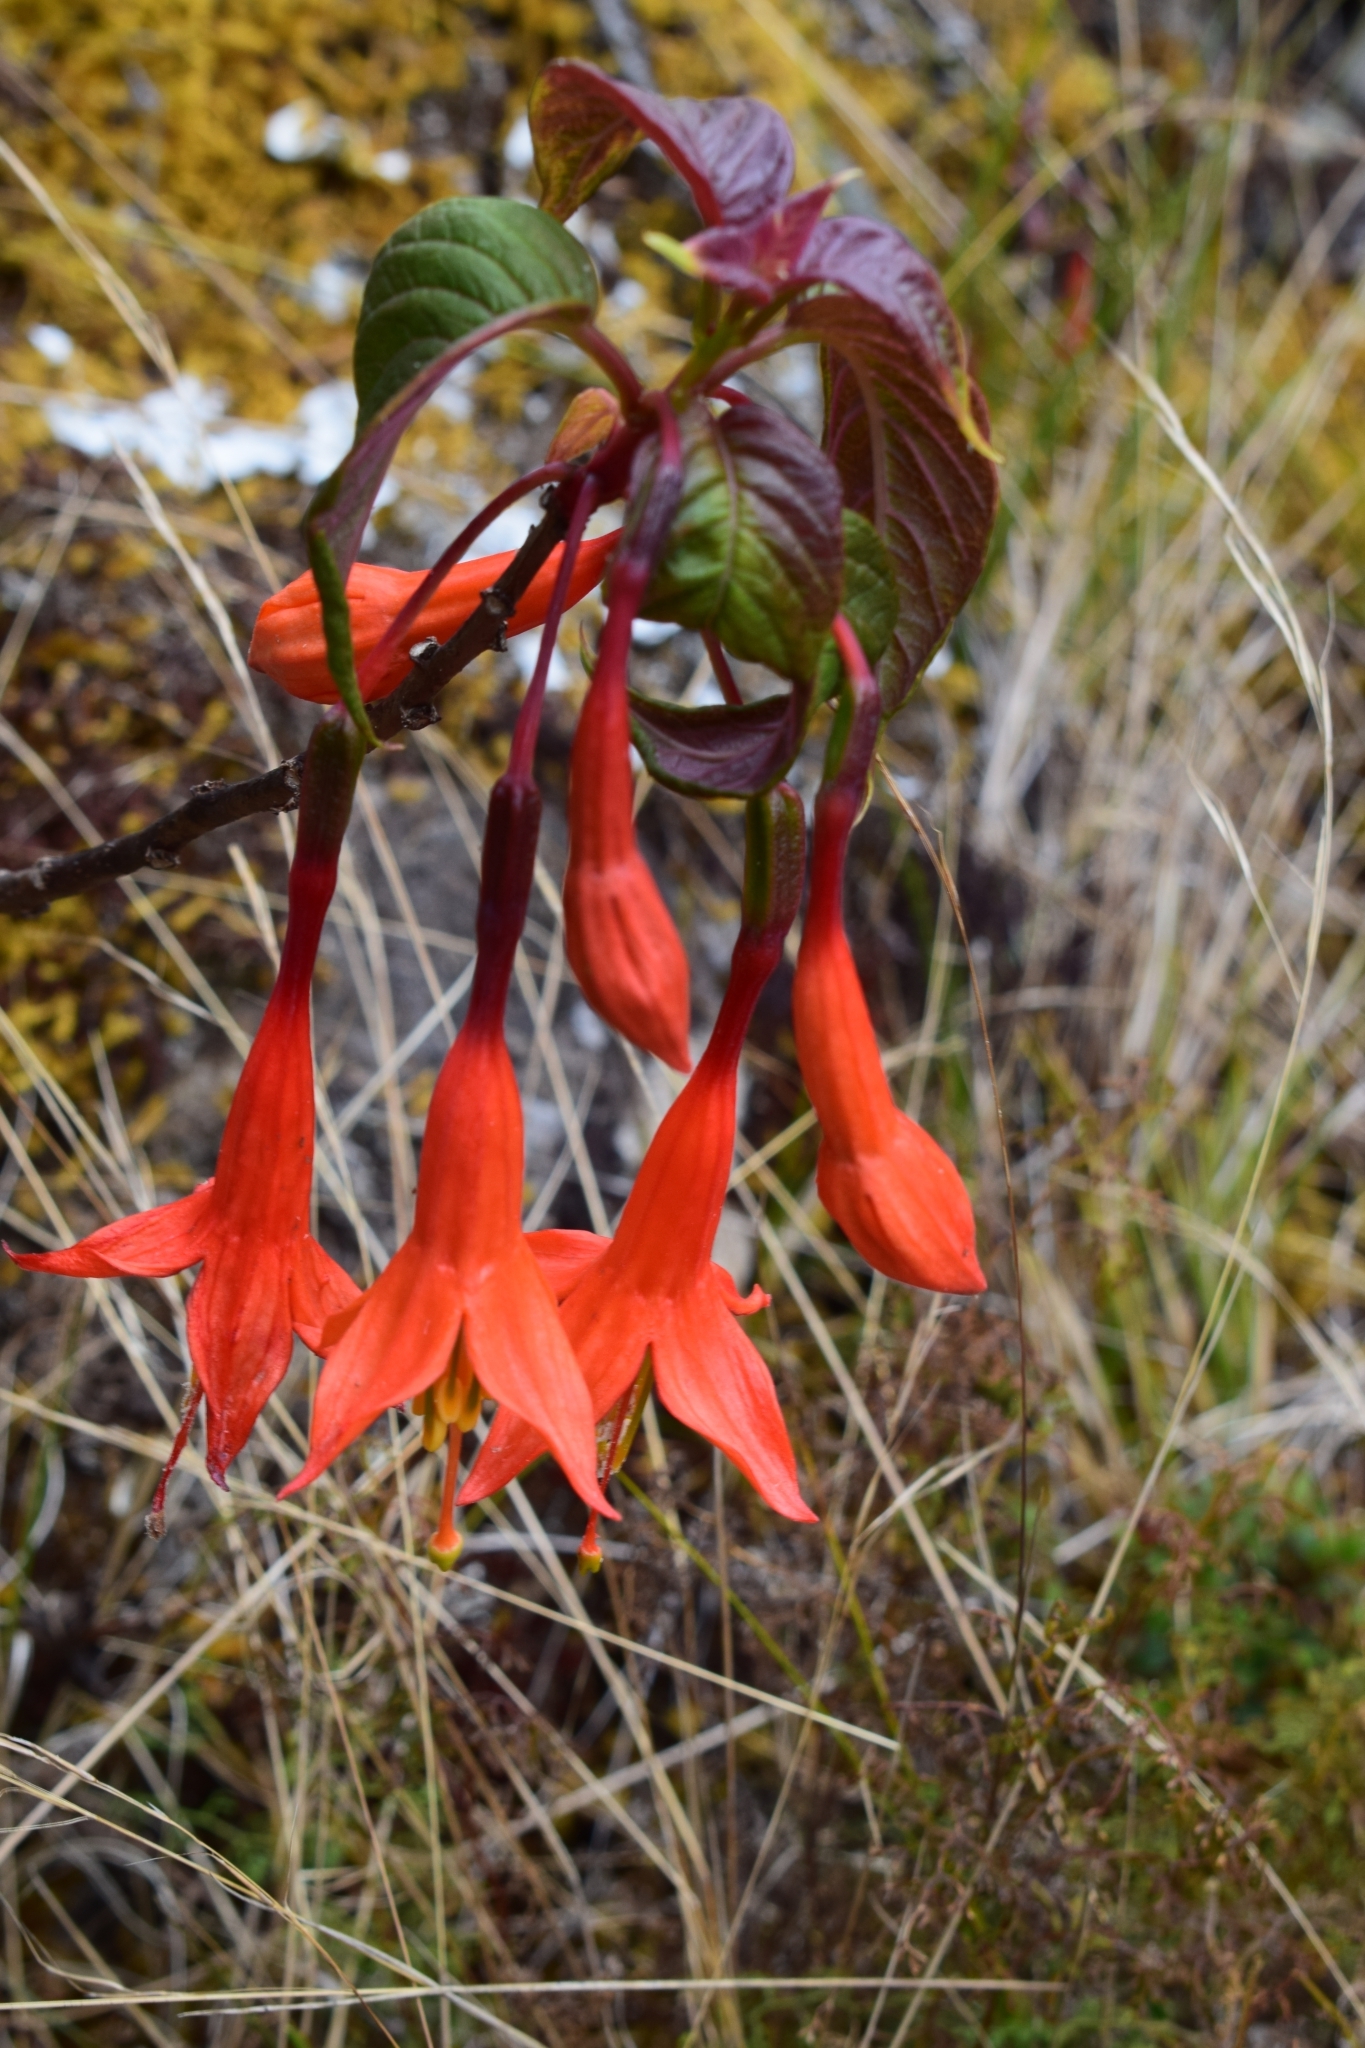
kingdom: Plantae
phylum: Tracheophyta
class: Magnoliopsida
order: Myrtales
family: Onagraceae
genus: Fuchsia
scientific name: Fuchsia tunariensis
